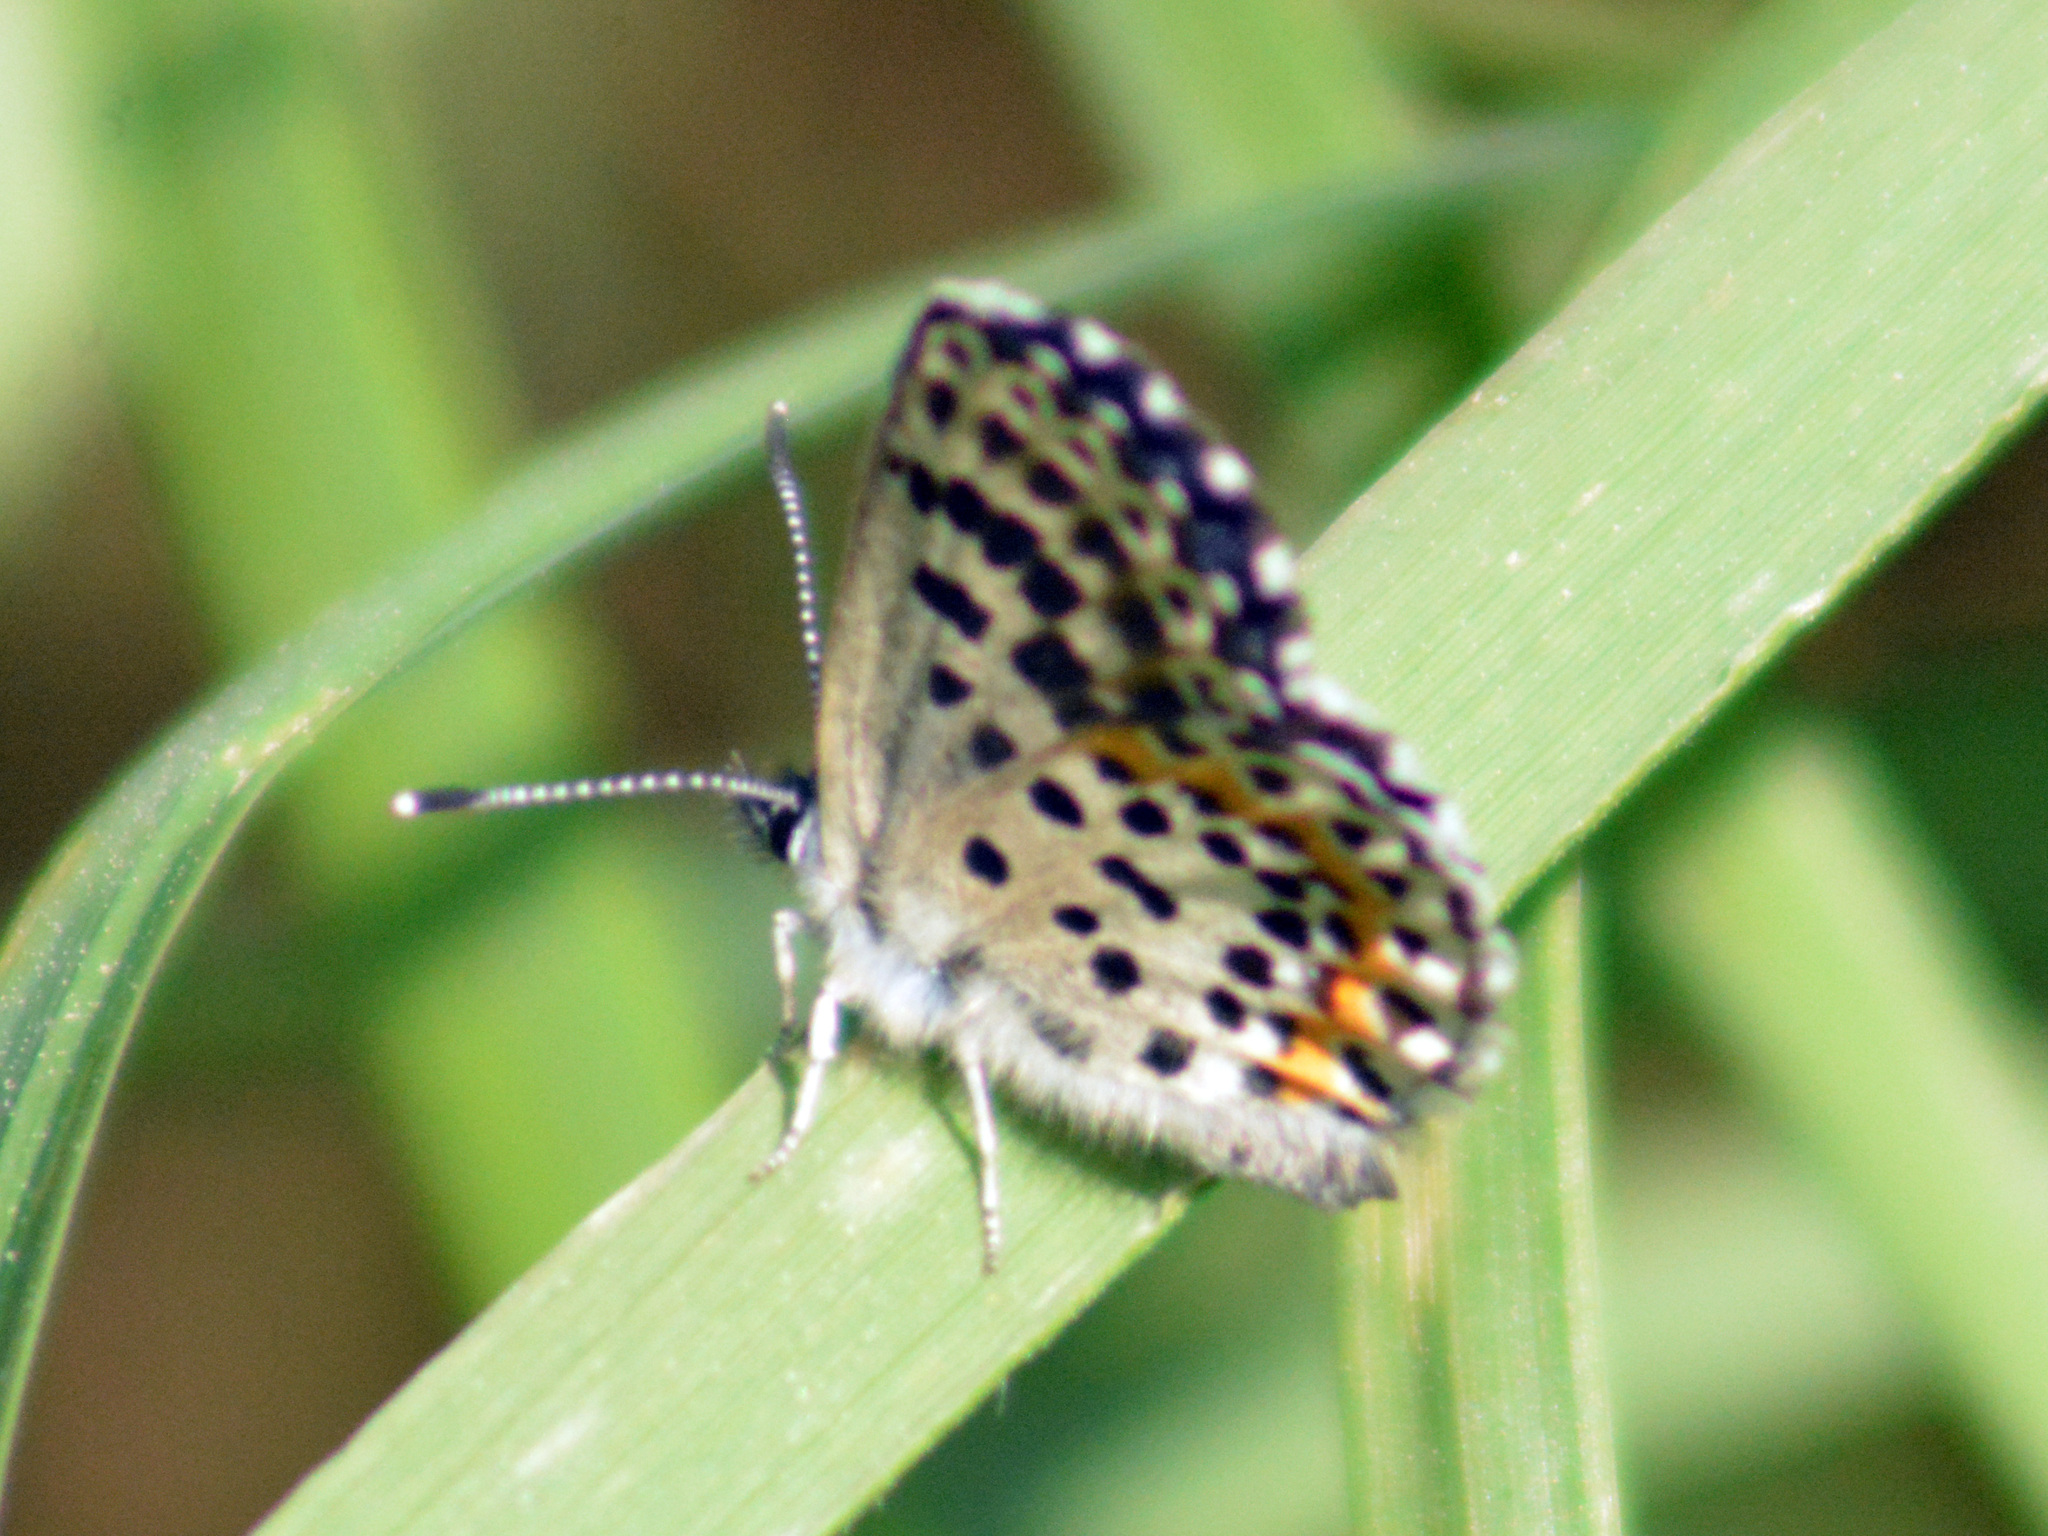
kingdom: Animalia
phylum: Arthropoda
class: Insecta
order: Lepidoptera
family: Lycaenidae
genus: Scolitantides
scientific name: Scolitantides orion
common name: Chequered blue
